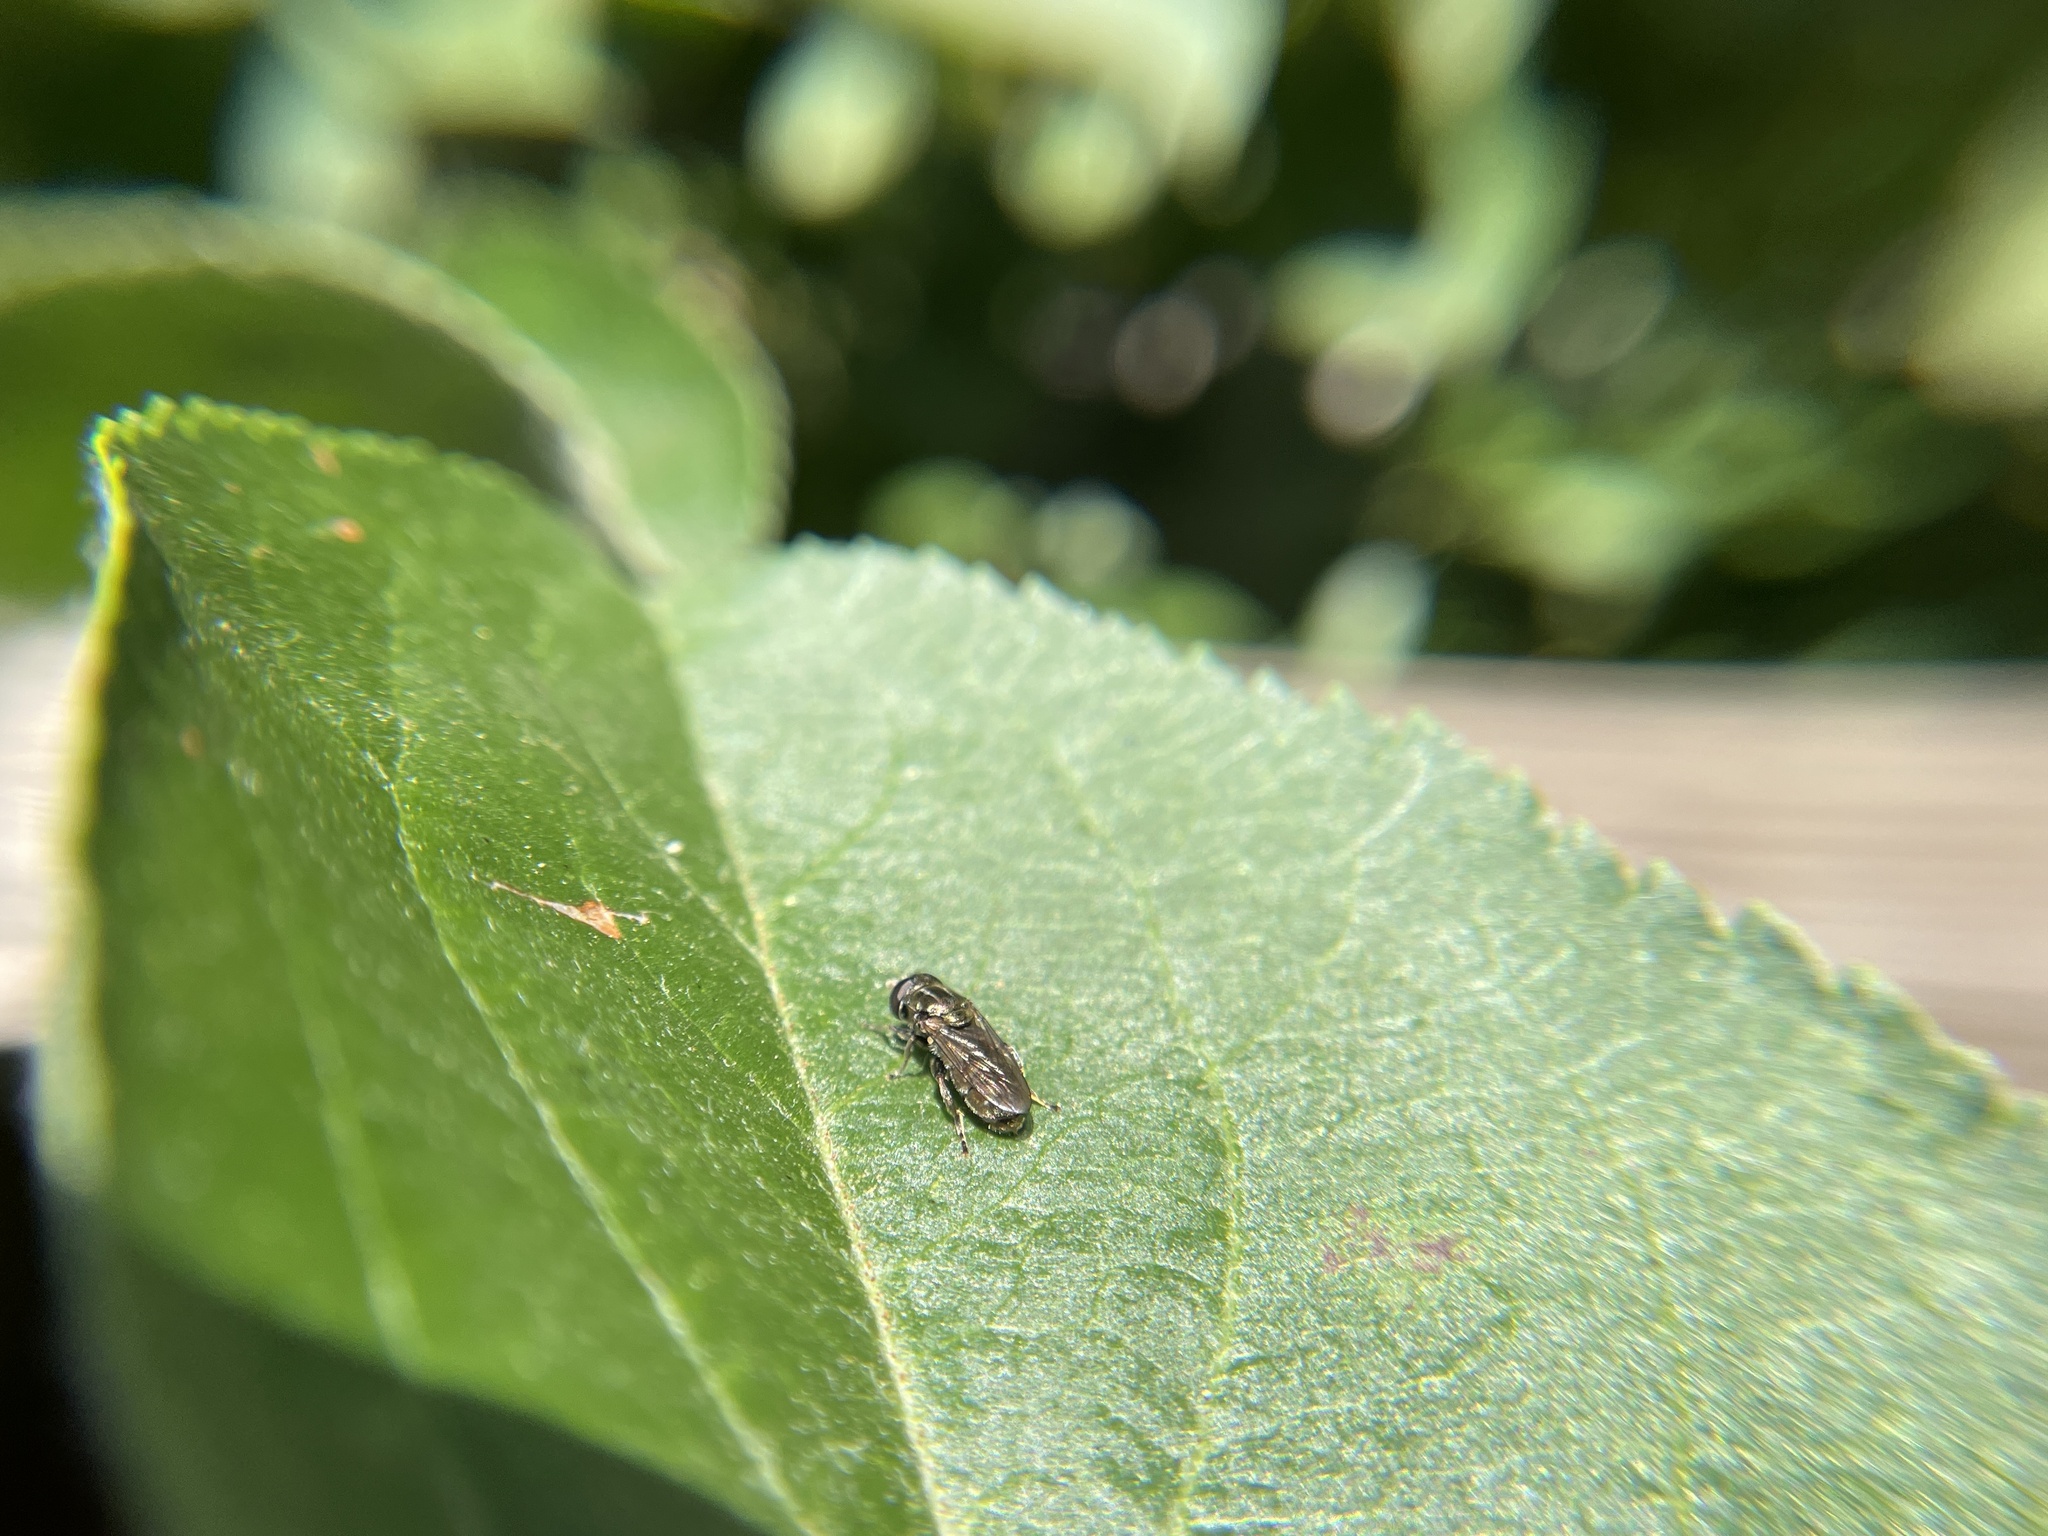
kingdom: Animalia
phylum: Arthropoda
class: Insecta
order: Diptera
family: Syrphidae
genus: Eumerus
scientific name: Eumerus
